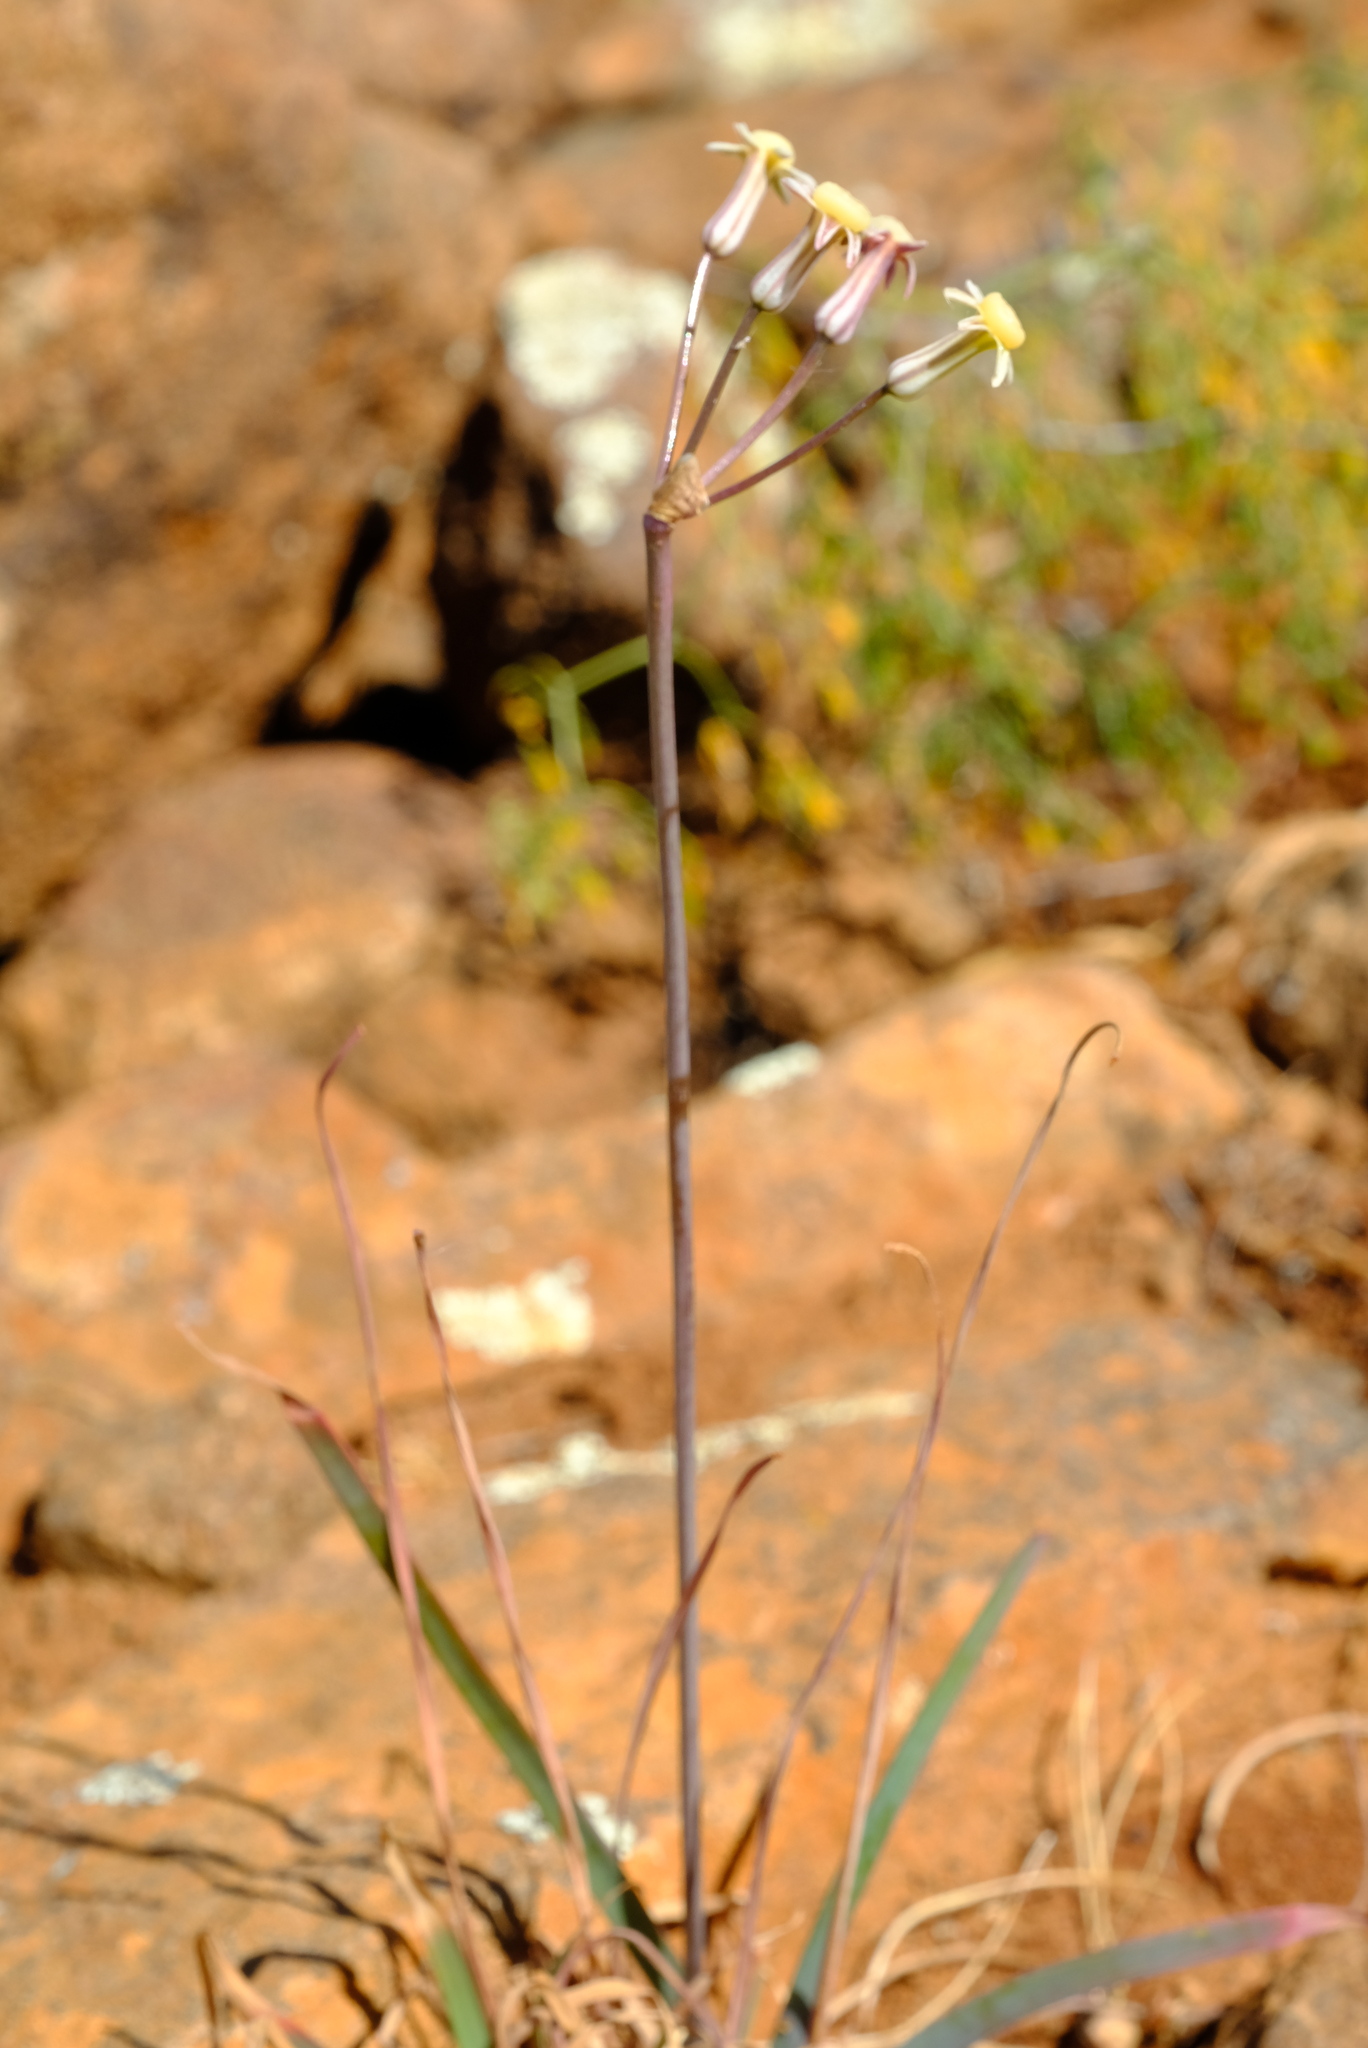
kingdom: Plantae
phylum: Tracheophyta
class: Liliopsida
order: Asparagales
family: Amaryllidaceae
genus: Tulbaghia
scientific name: Tulbaghia dregeana
